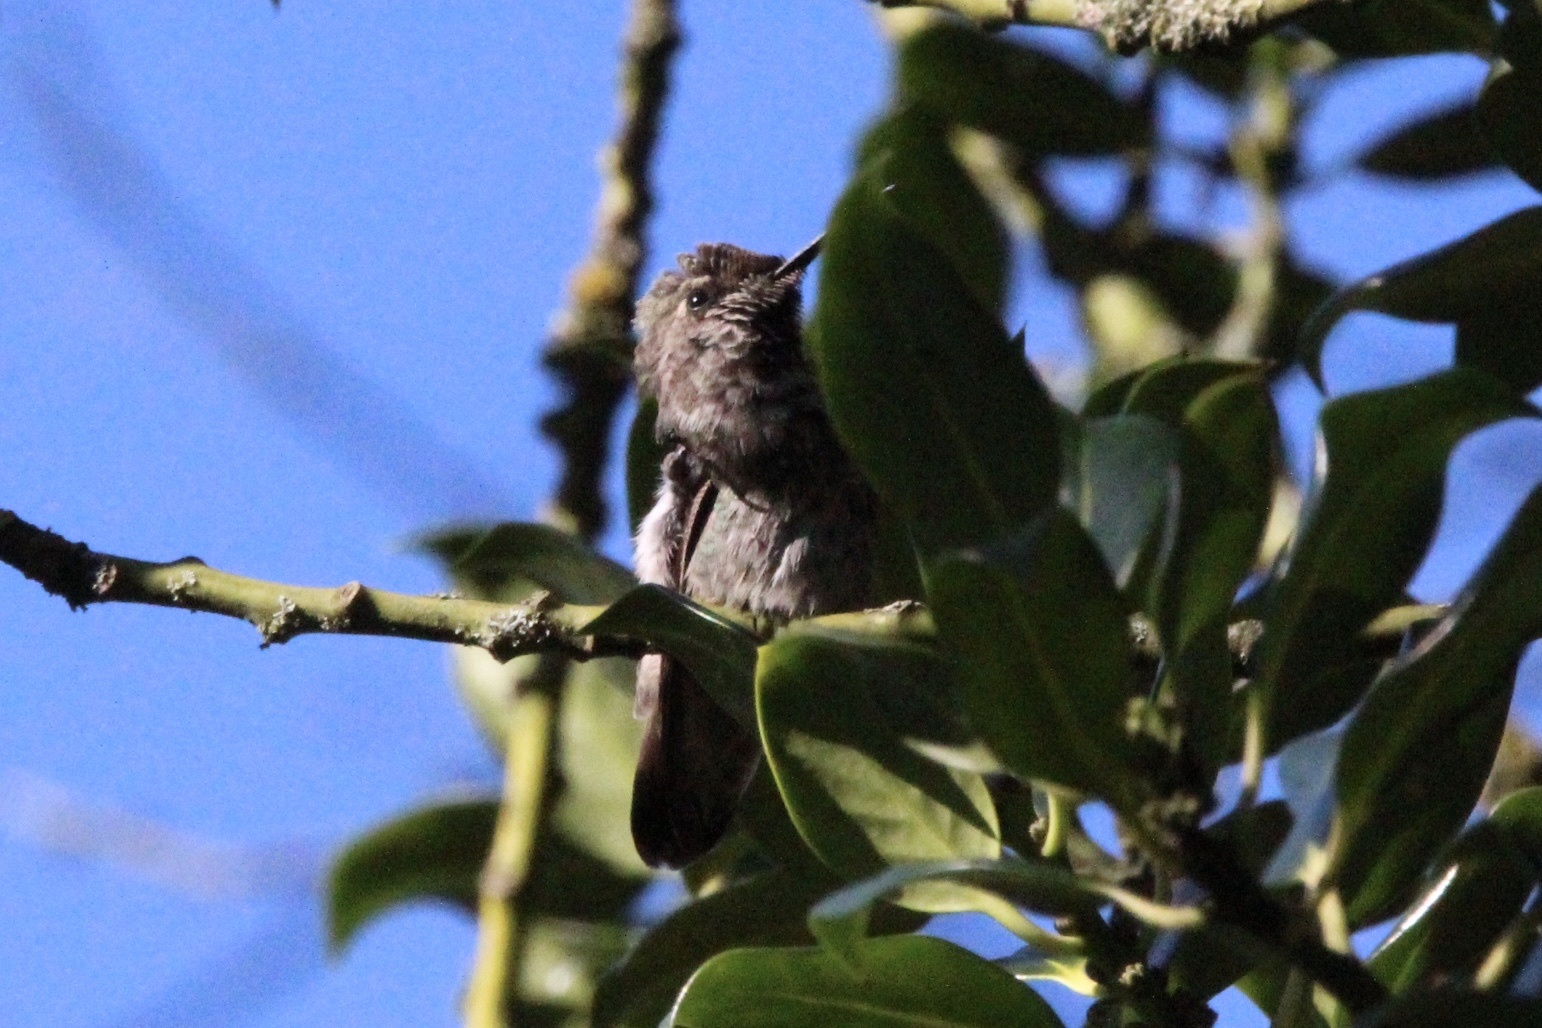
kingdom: Animalia
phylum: Chordata
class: Aves
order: Apodiformes
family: Trochilidae
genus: Calypte
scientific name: Calypte anna
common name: Anna's hummingbird
